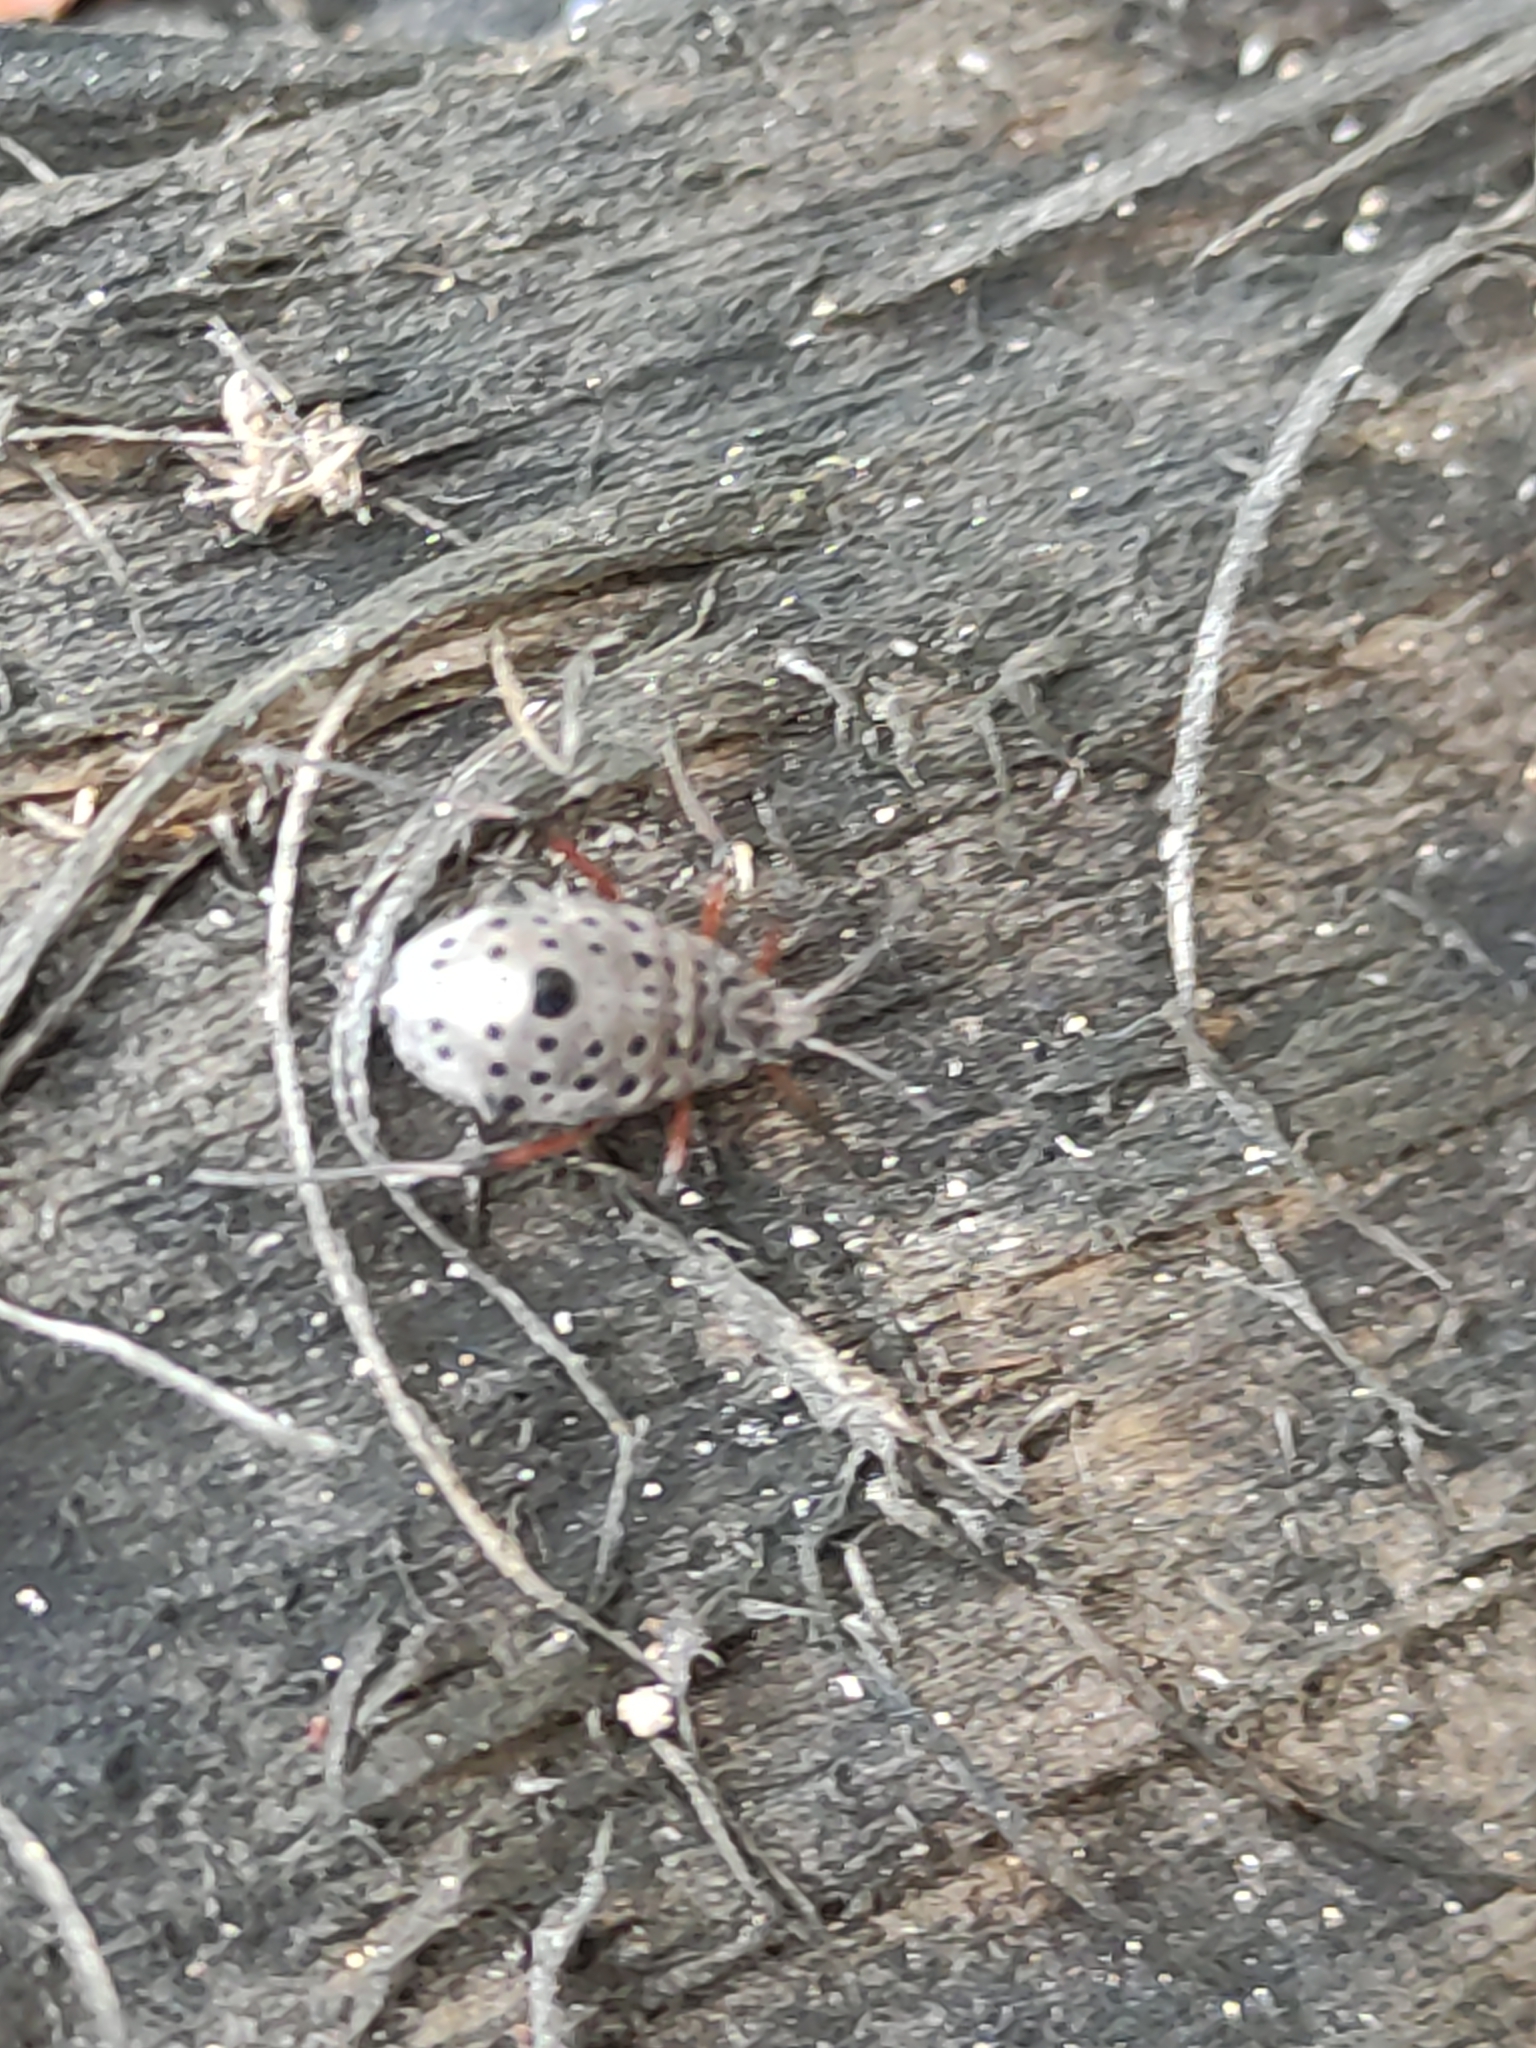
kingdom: Animalia
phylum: Arthropoda
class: Insecta
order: Hemiptera
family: Aphididae
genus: Tuberolachnus
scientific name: Tuberolachnus salignus
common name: Giant willow aphid
